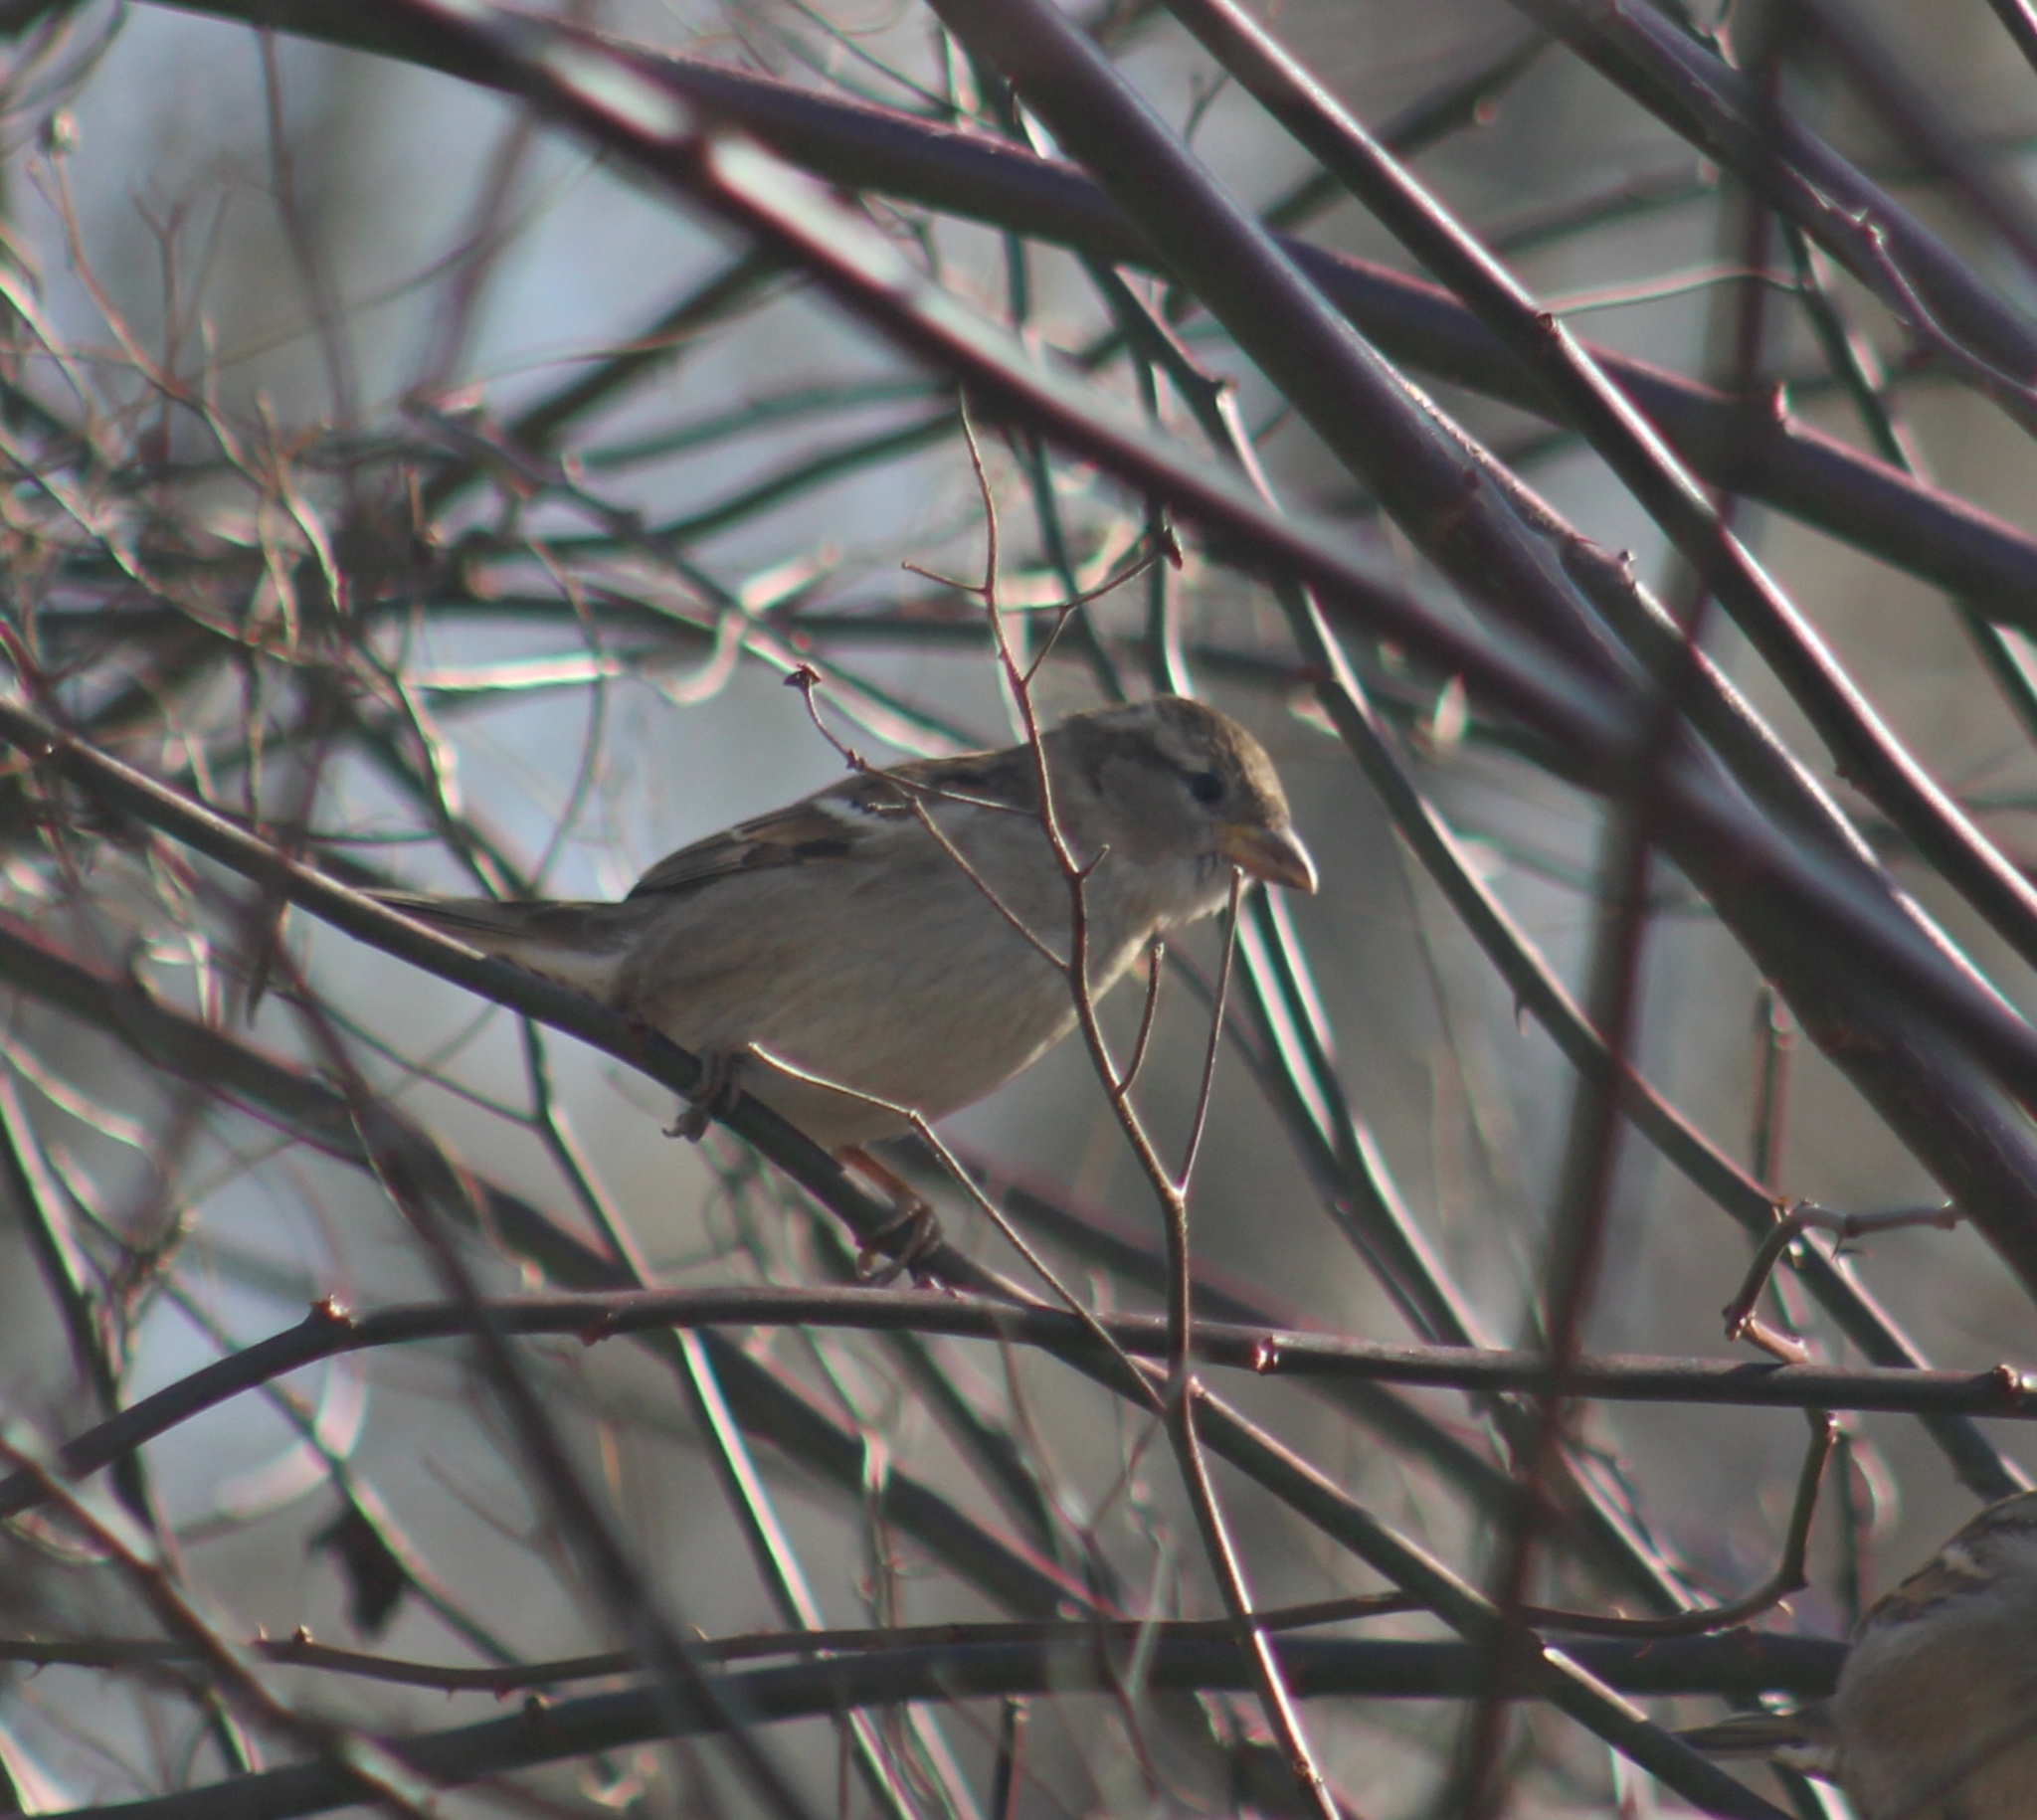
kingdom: Animalia
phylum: Chordata
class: Aves
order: Passeriformes
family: Passeridae
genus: Passer
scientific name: Passer domesticus
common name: House sparrow
